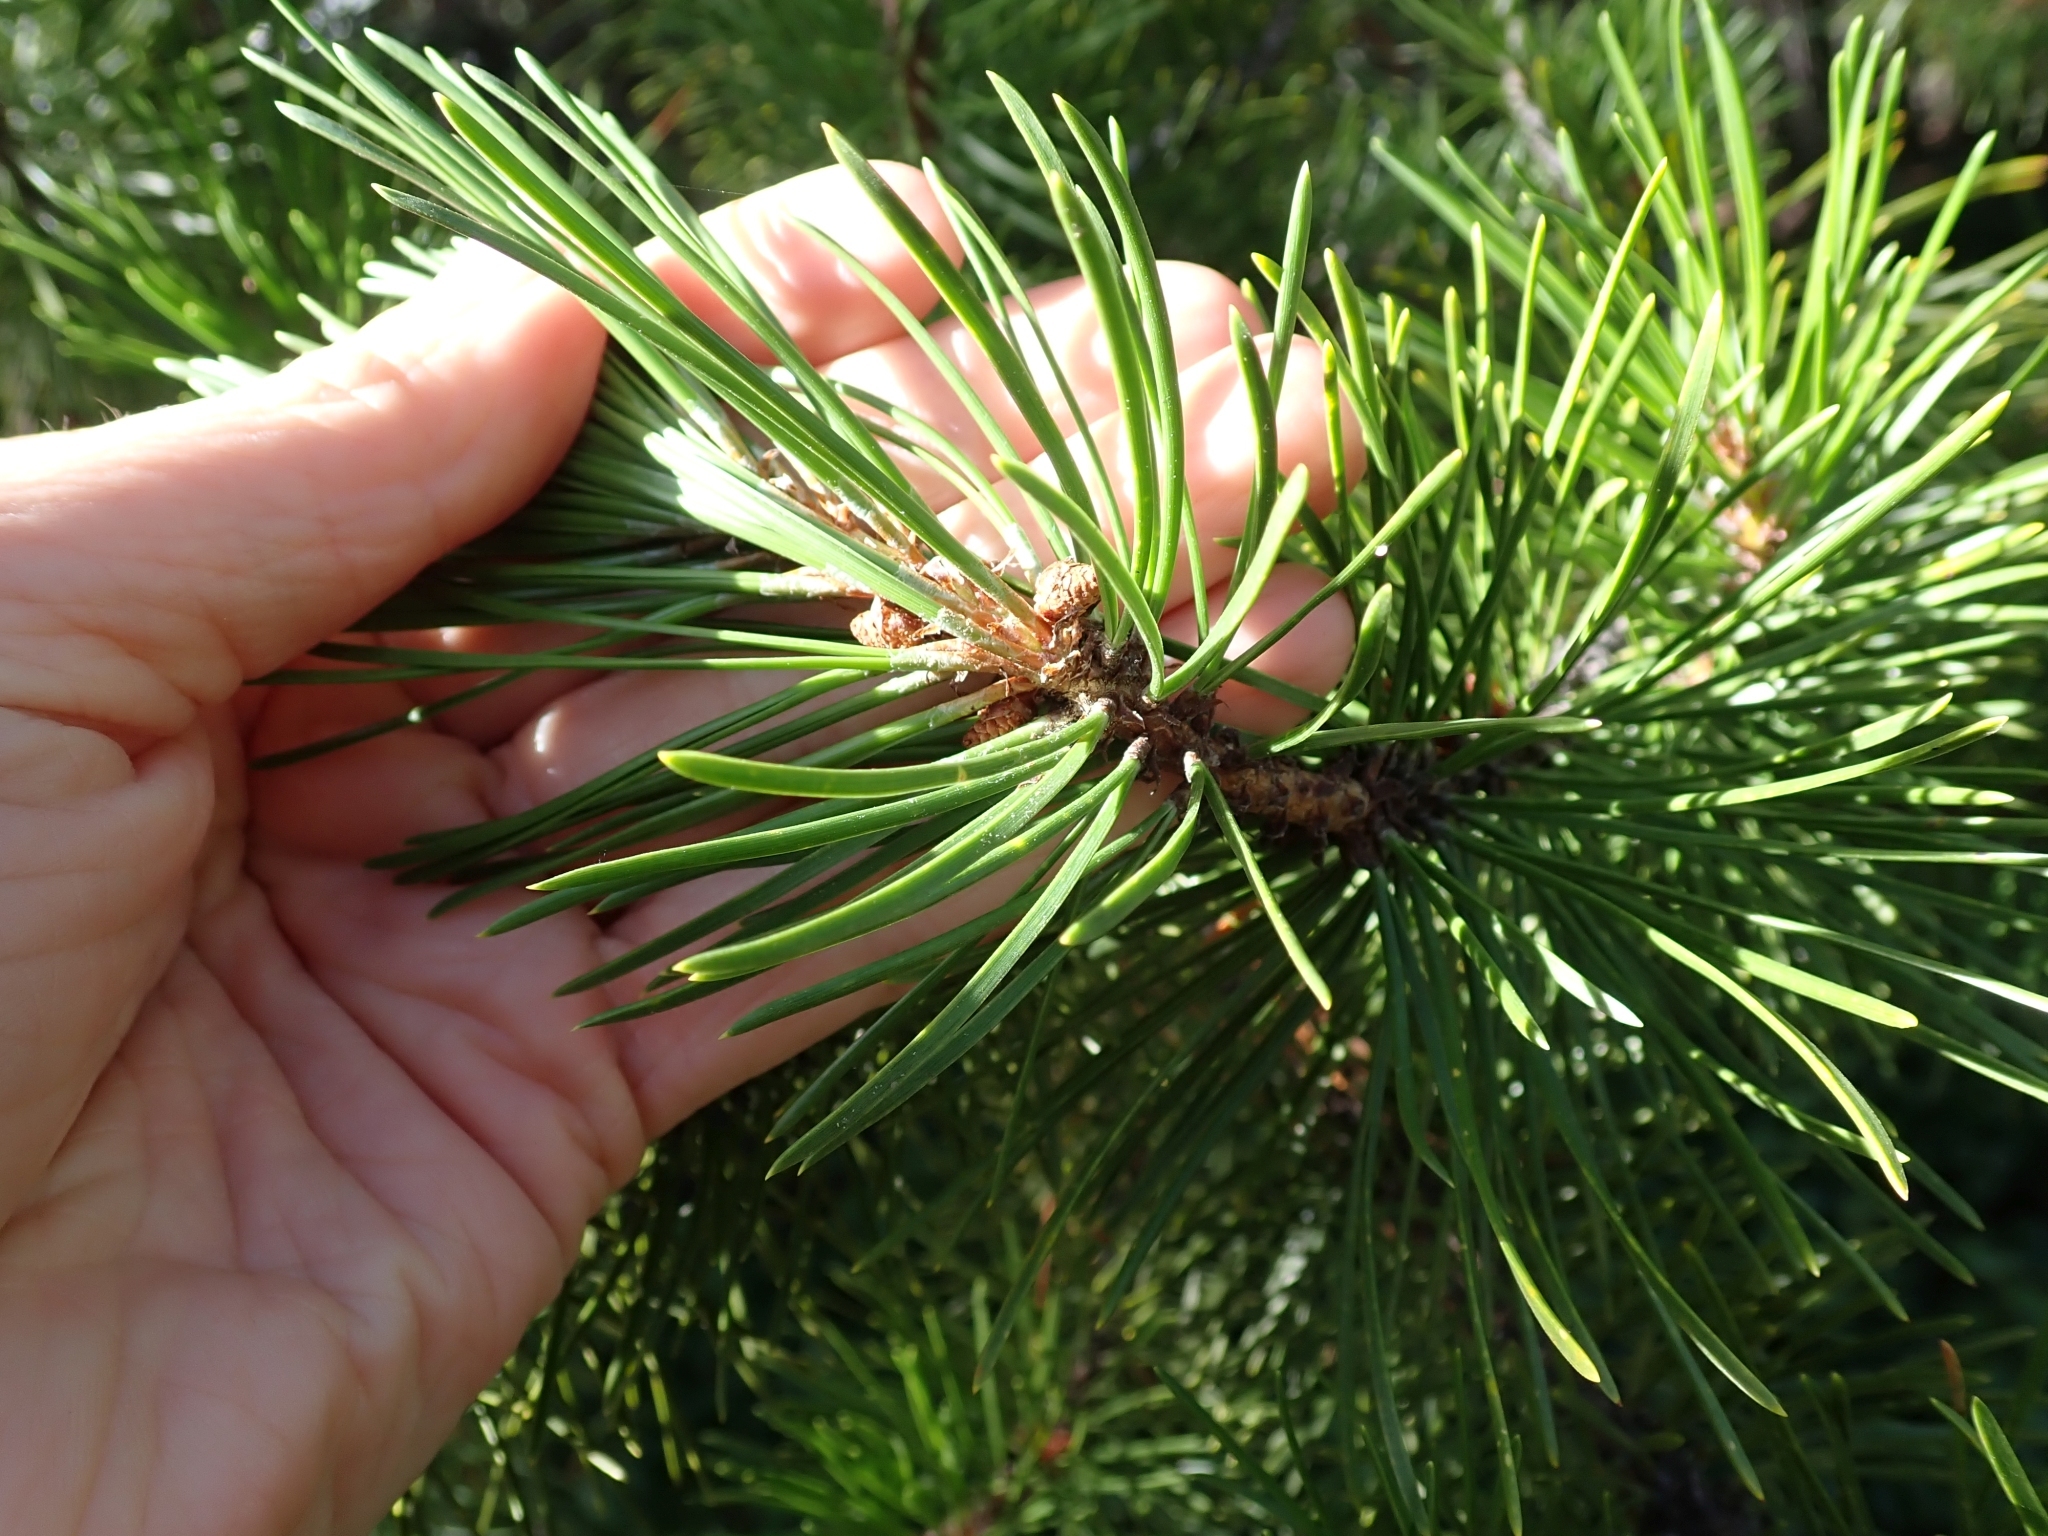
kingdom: Plantae
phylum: Tracheophyta
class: Pinopsida
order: Pinales
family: Pinaceae
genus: Pinus
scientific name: Pinus contorta
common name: Lodgepole pine
